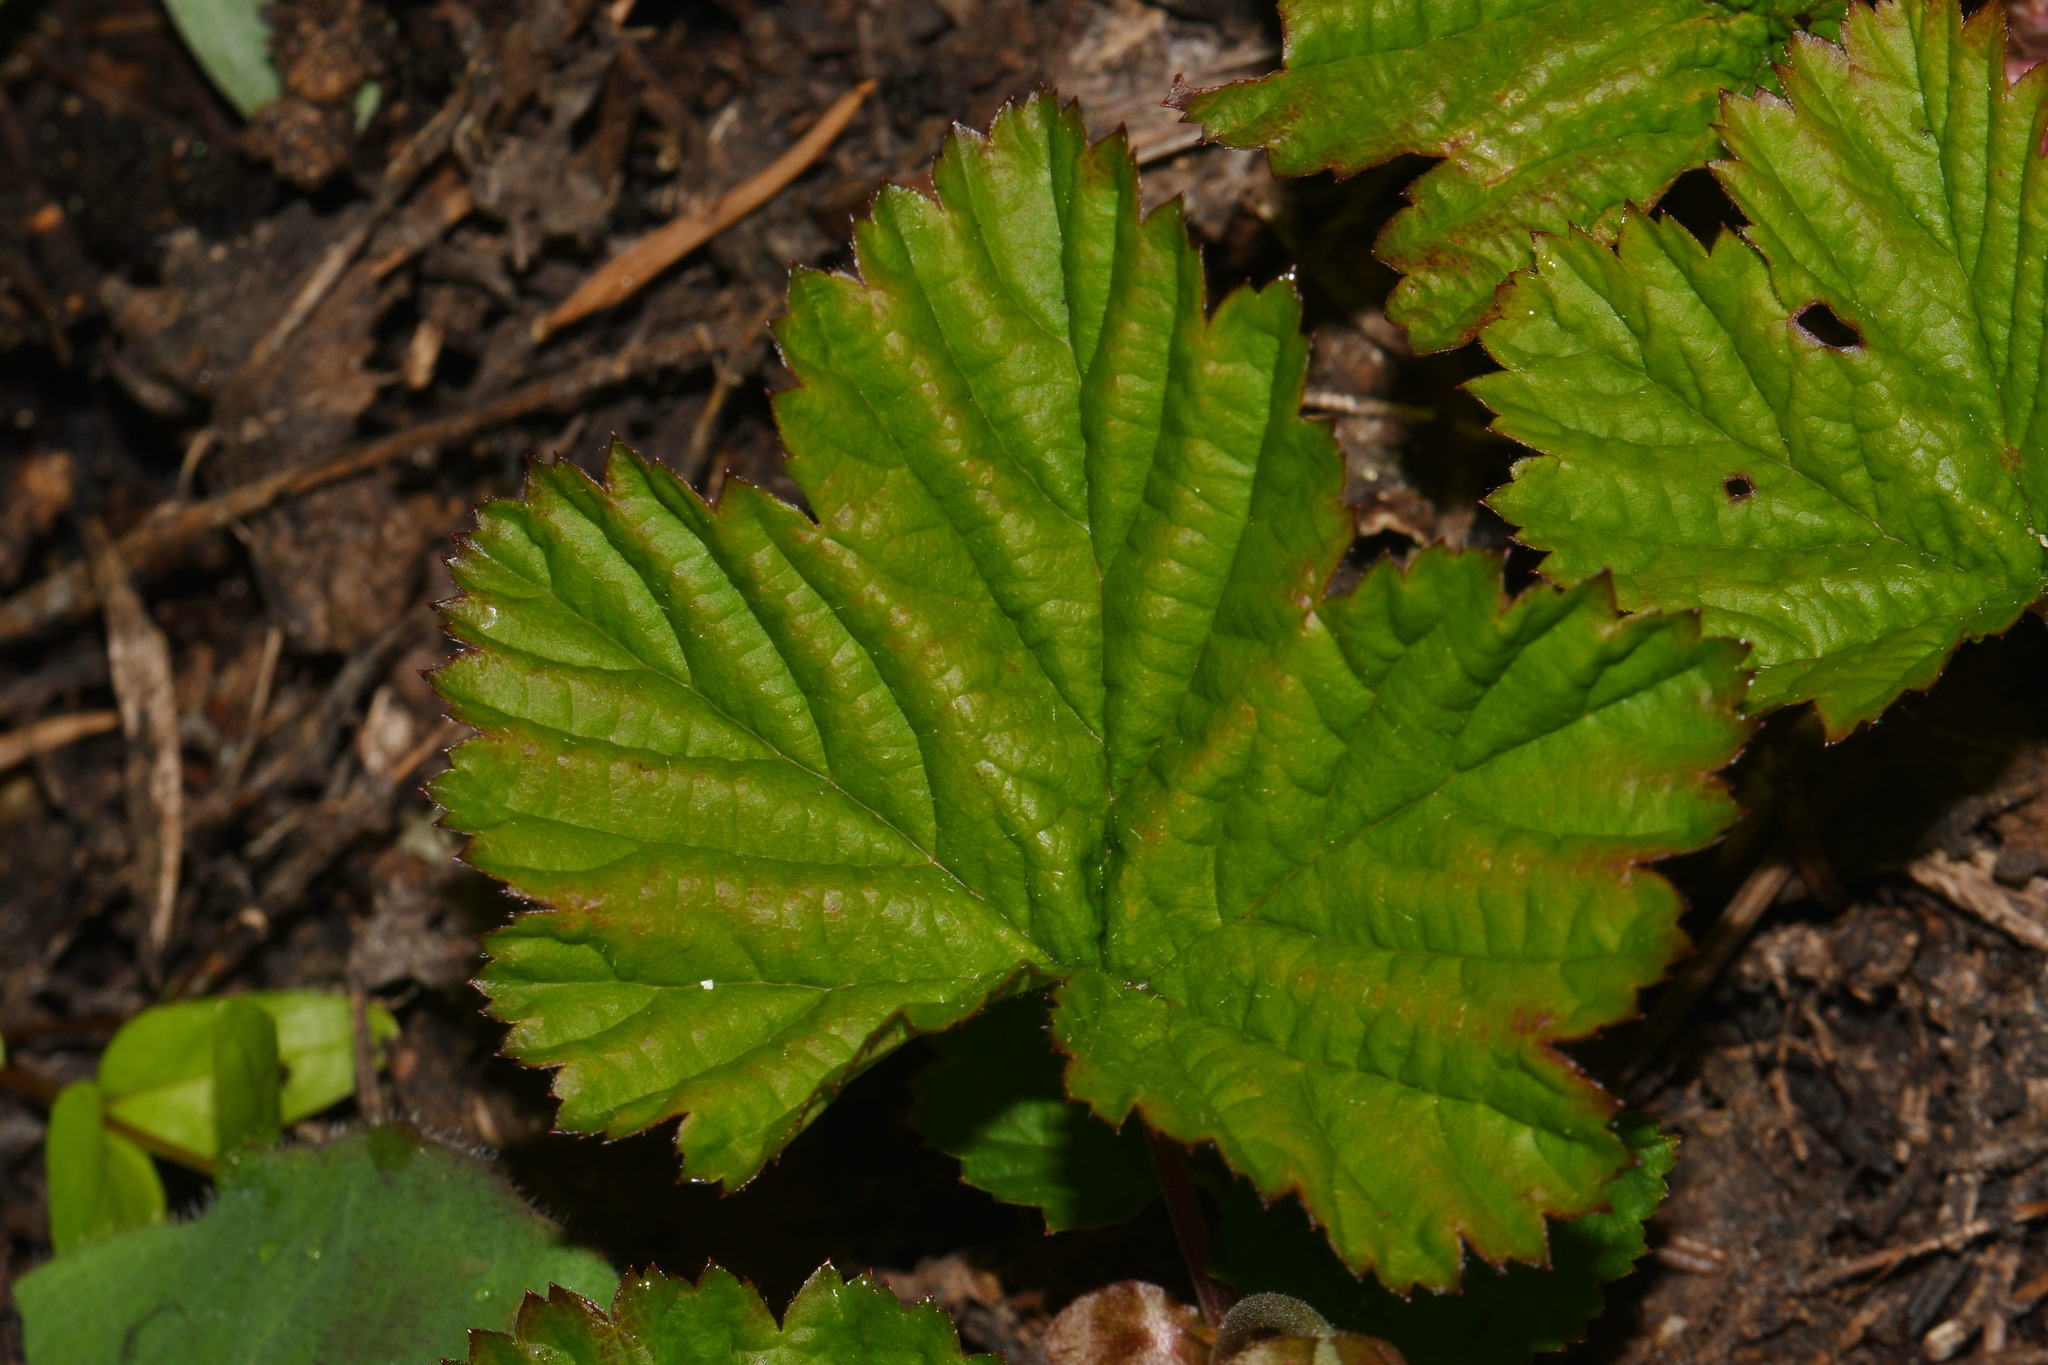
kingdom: Plantae
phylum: Tracheophyta
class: Magnoliopsida
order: Rosales
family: Rosaceae
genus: Rubus
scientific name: Rubus lasiococcus
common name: Dwarf bramble
